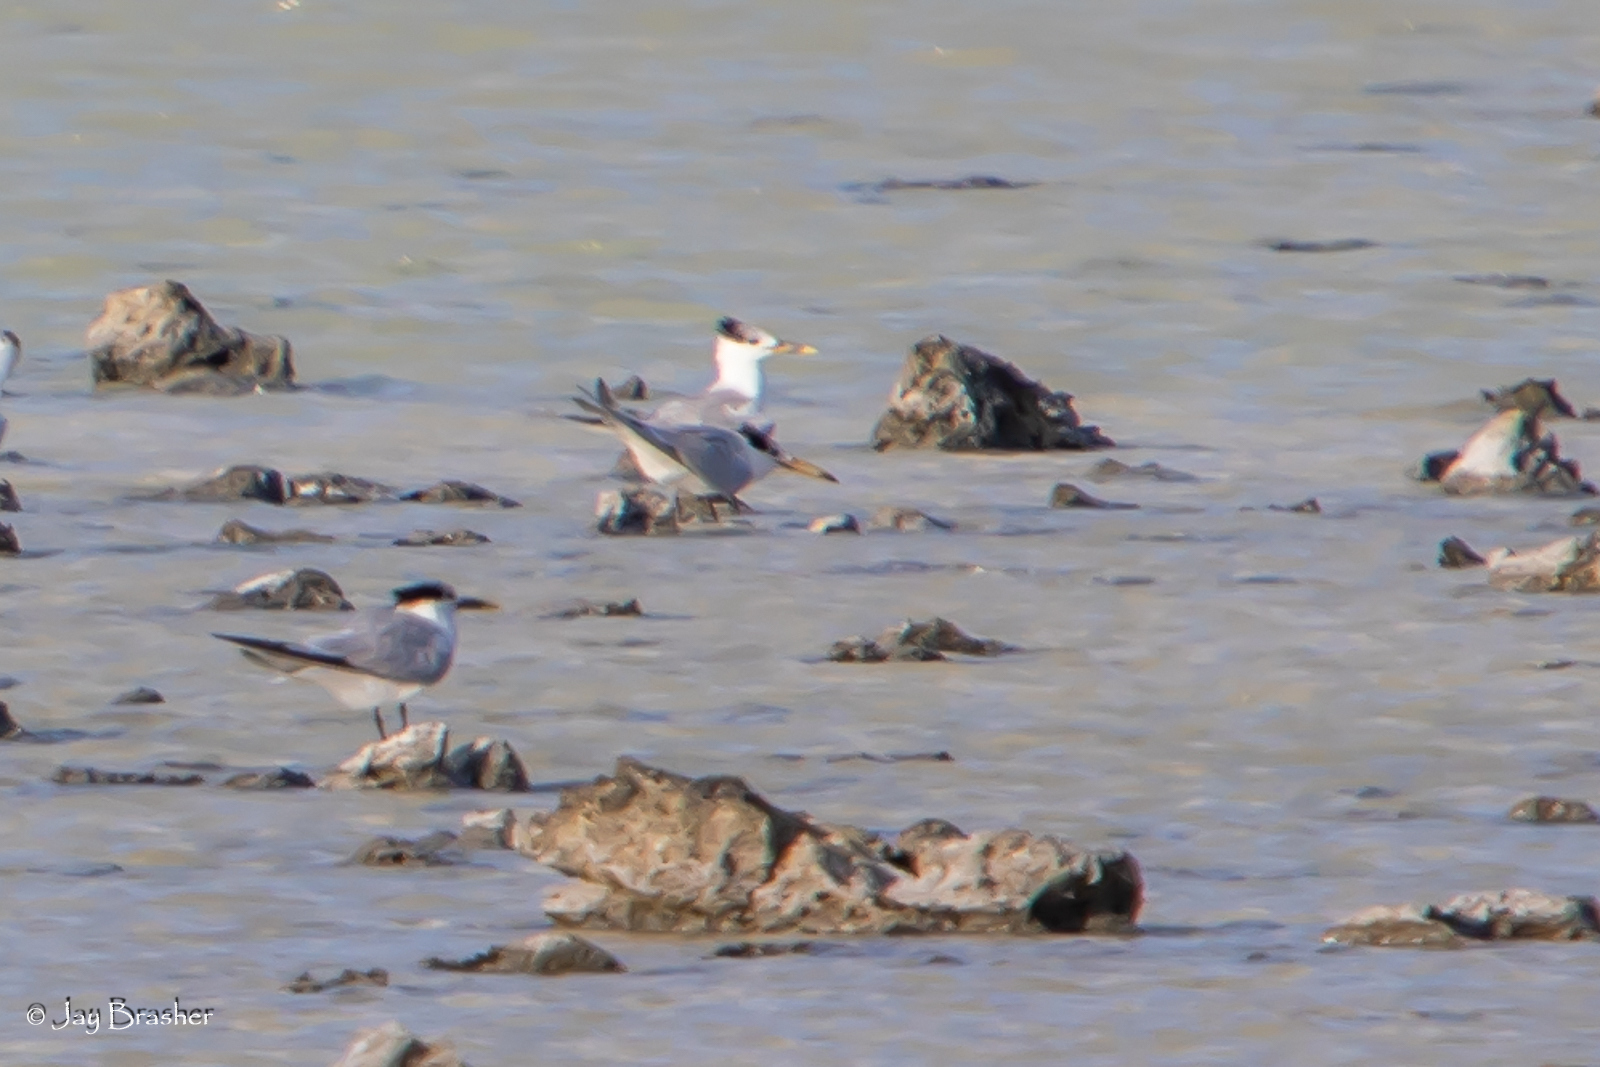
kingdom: Animalia
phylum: Chordata
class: Aves
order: Charadriiformes
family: Laridae
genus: Thalasseus
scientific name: Thalasseus maximus
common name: Royal tern
